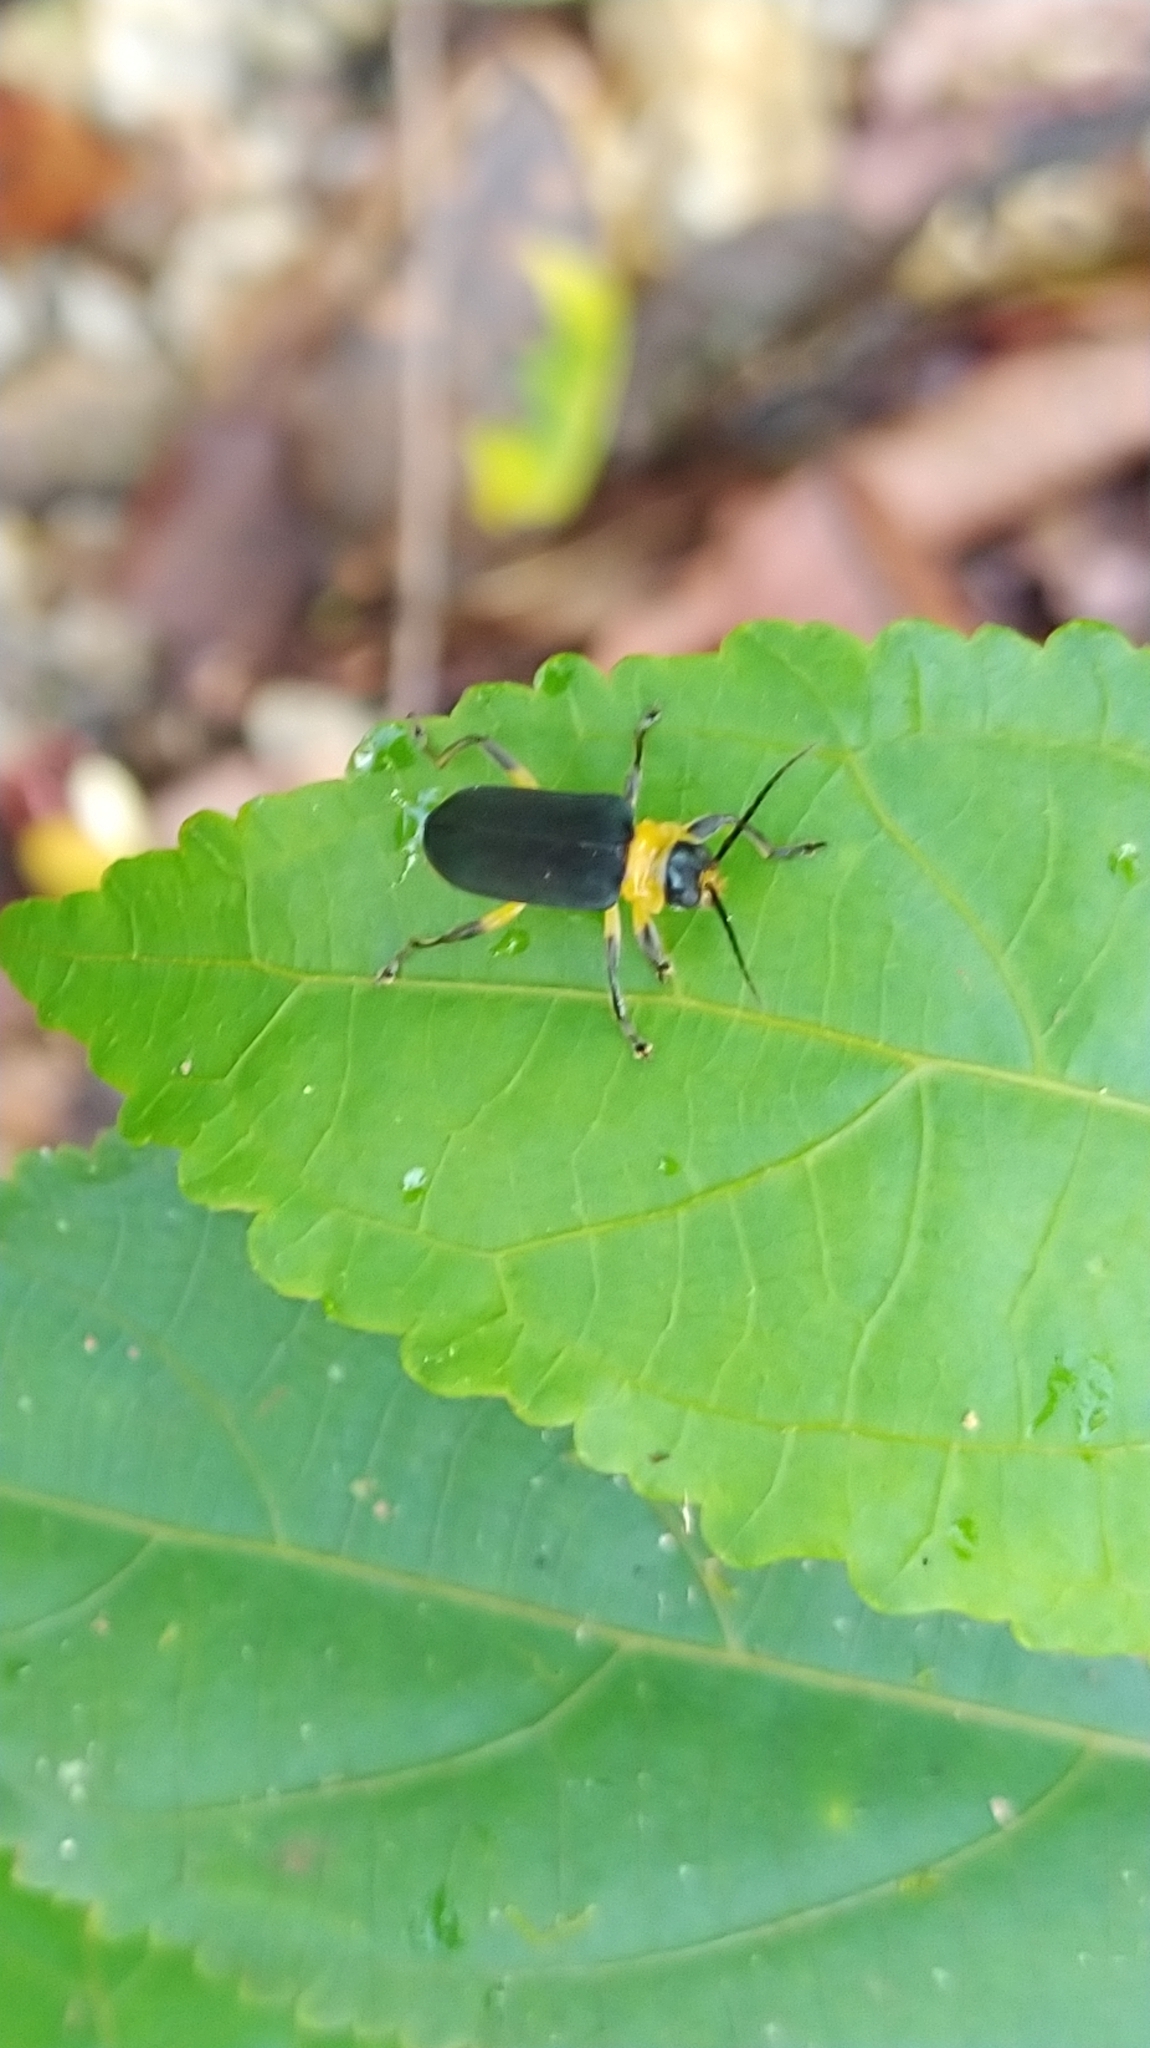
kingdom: Animalia
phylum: Arthropoda
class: Insecta
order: Coleoptera
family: Chrysomelidae
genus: Dircema
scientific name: Dircema nigripenne
